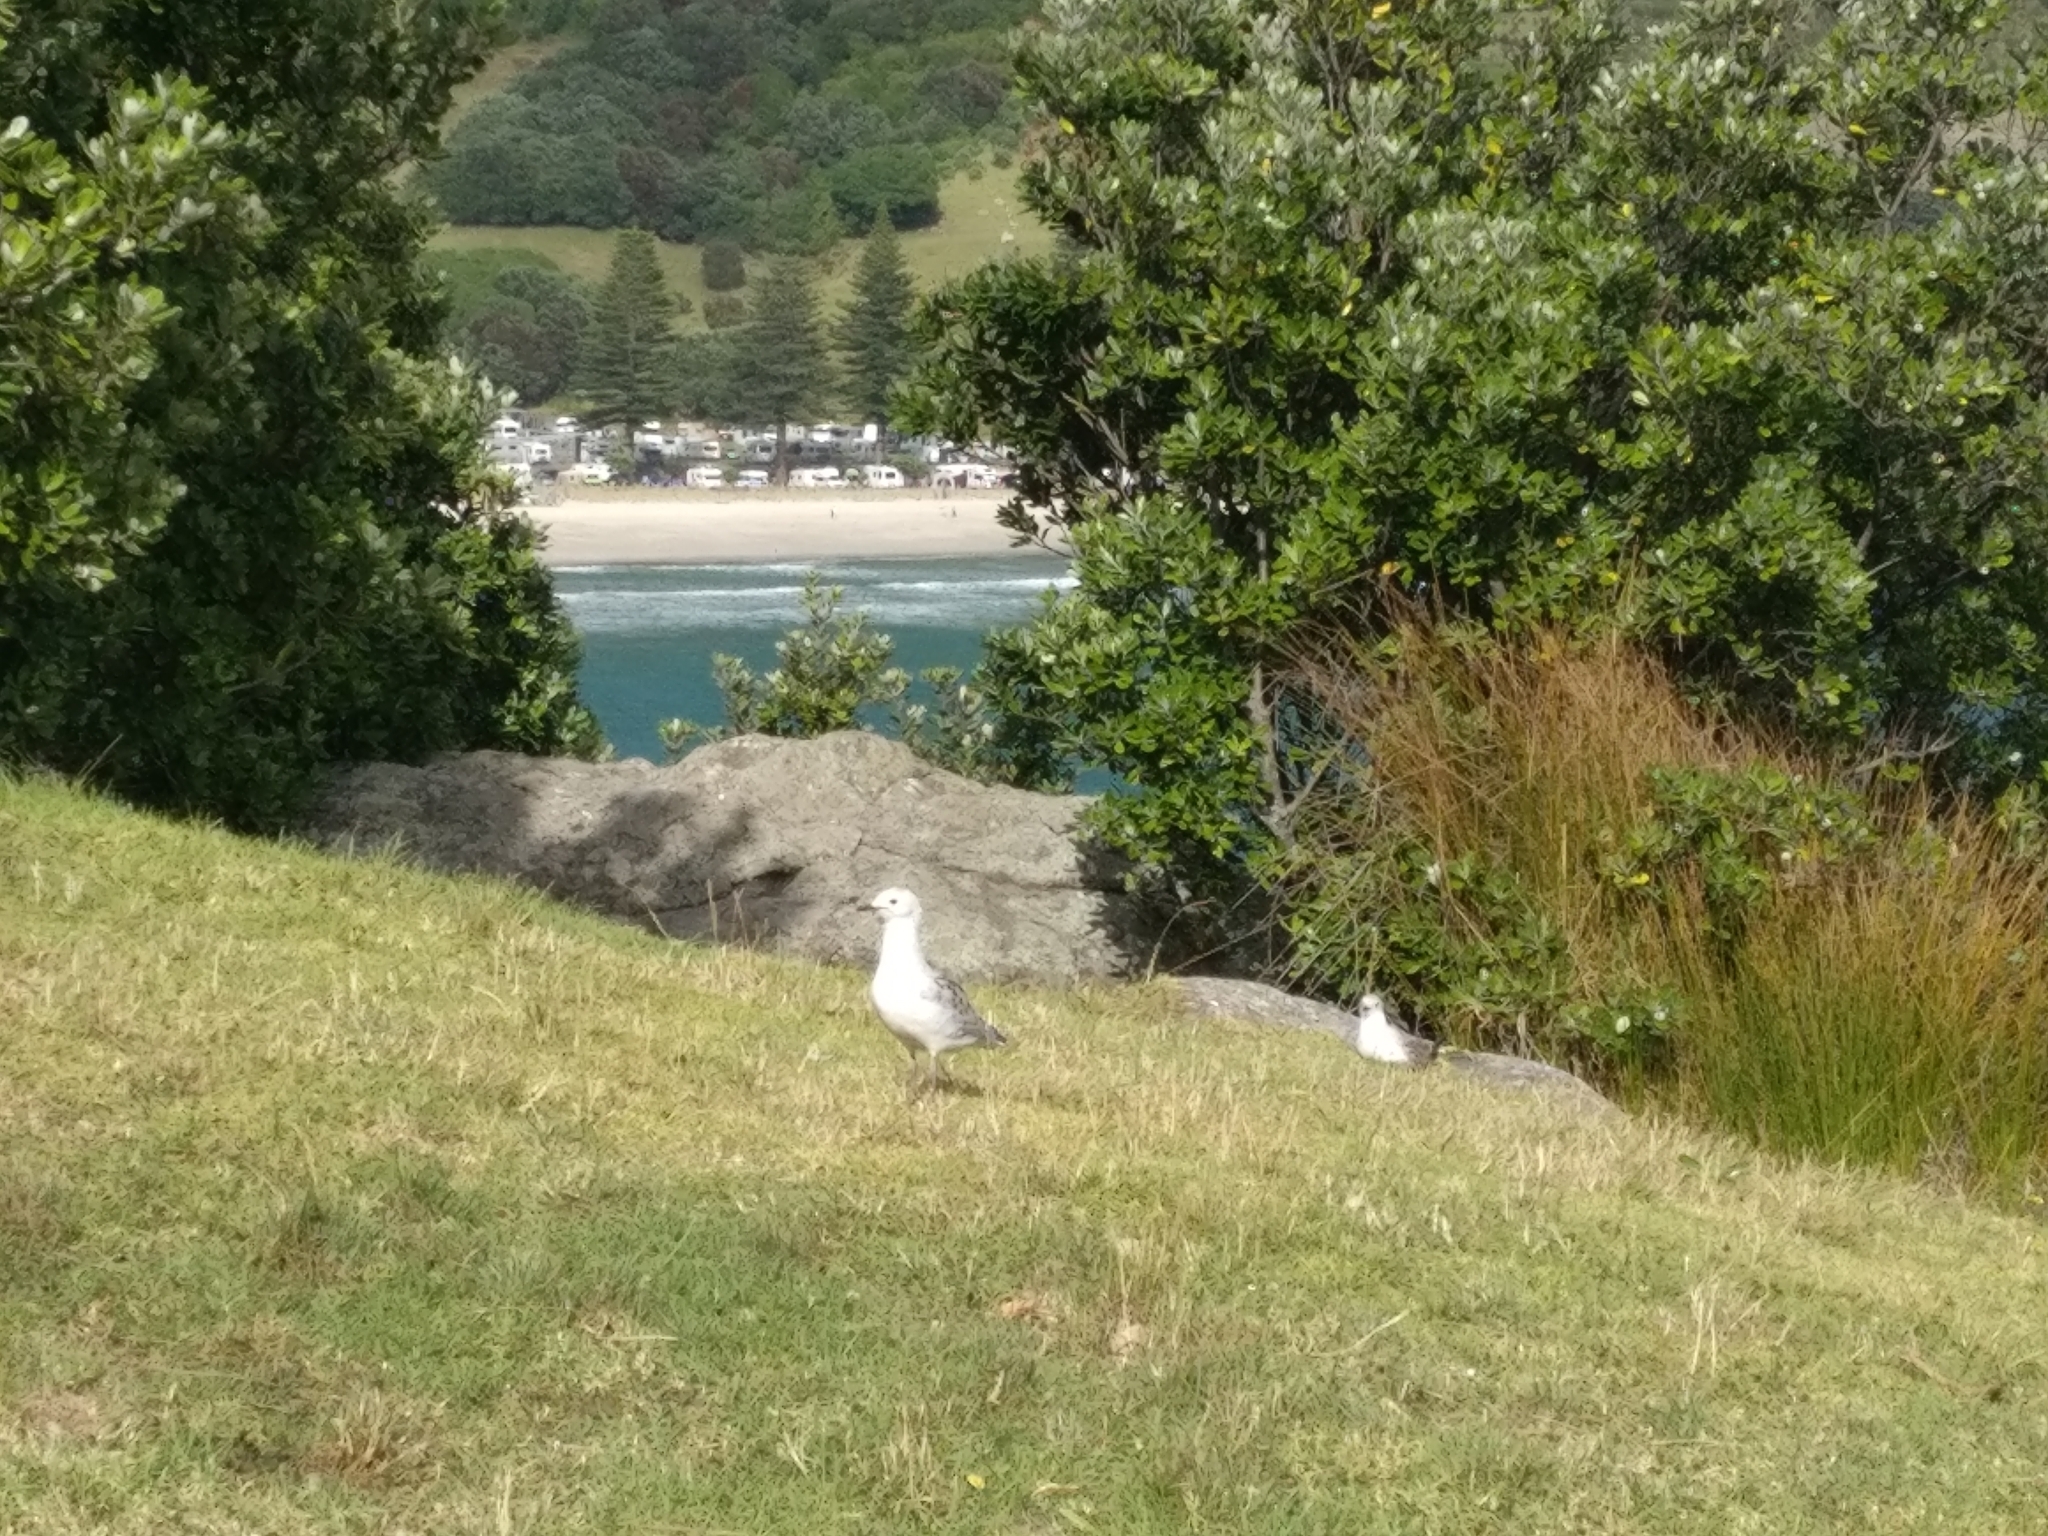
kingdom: Animalia
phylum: Chordata
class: Aves
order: Charadriiformes
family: Laridae
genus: Chroicocephalus
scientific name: Chroicocephalus novaehollandiae
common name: Silver gull
